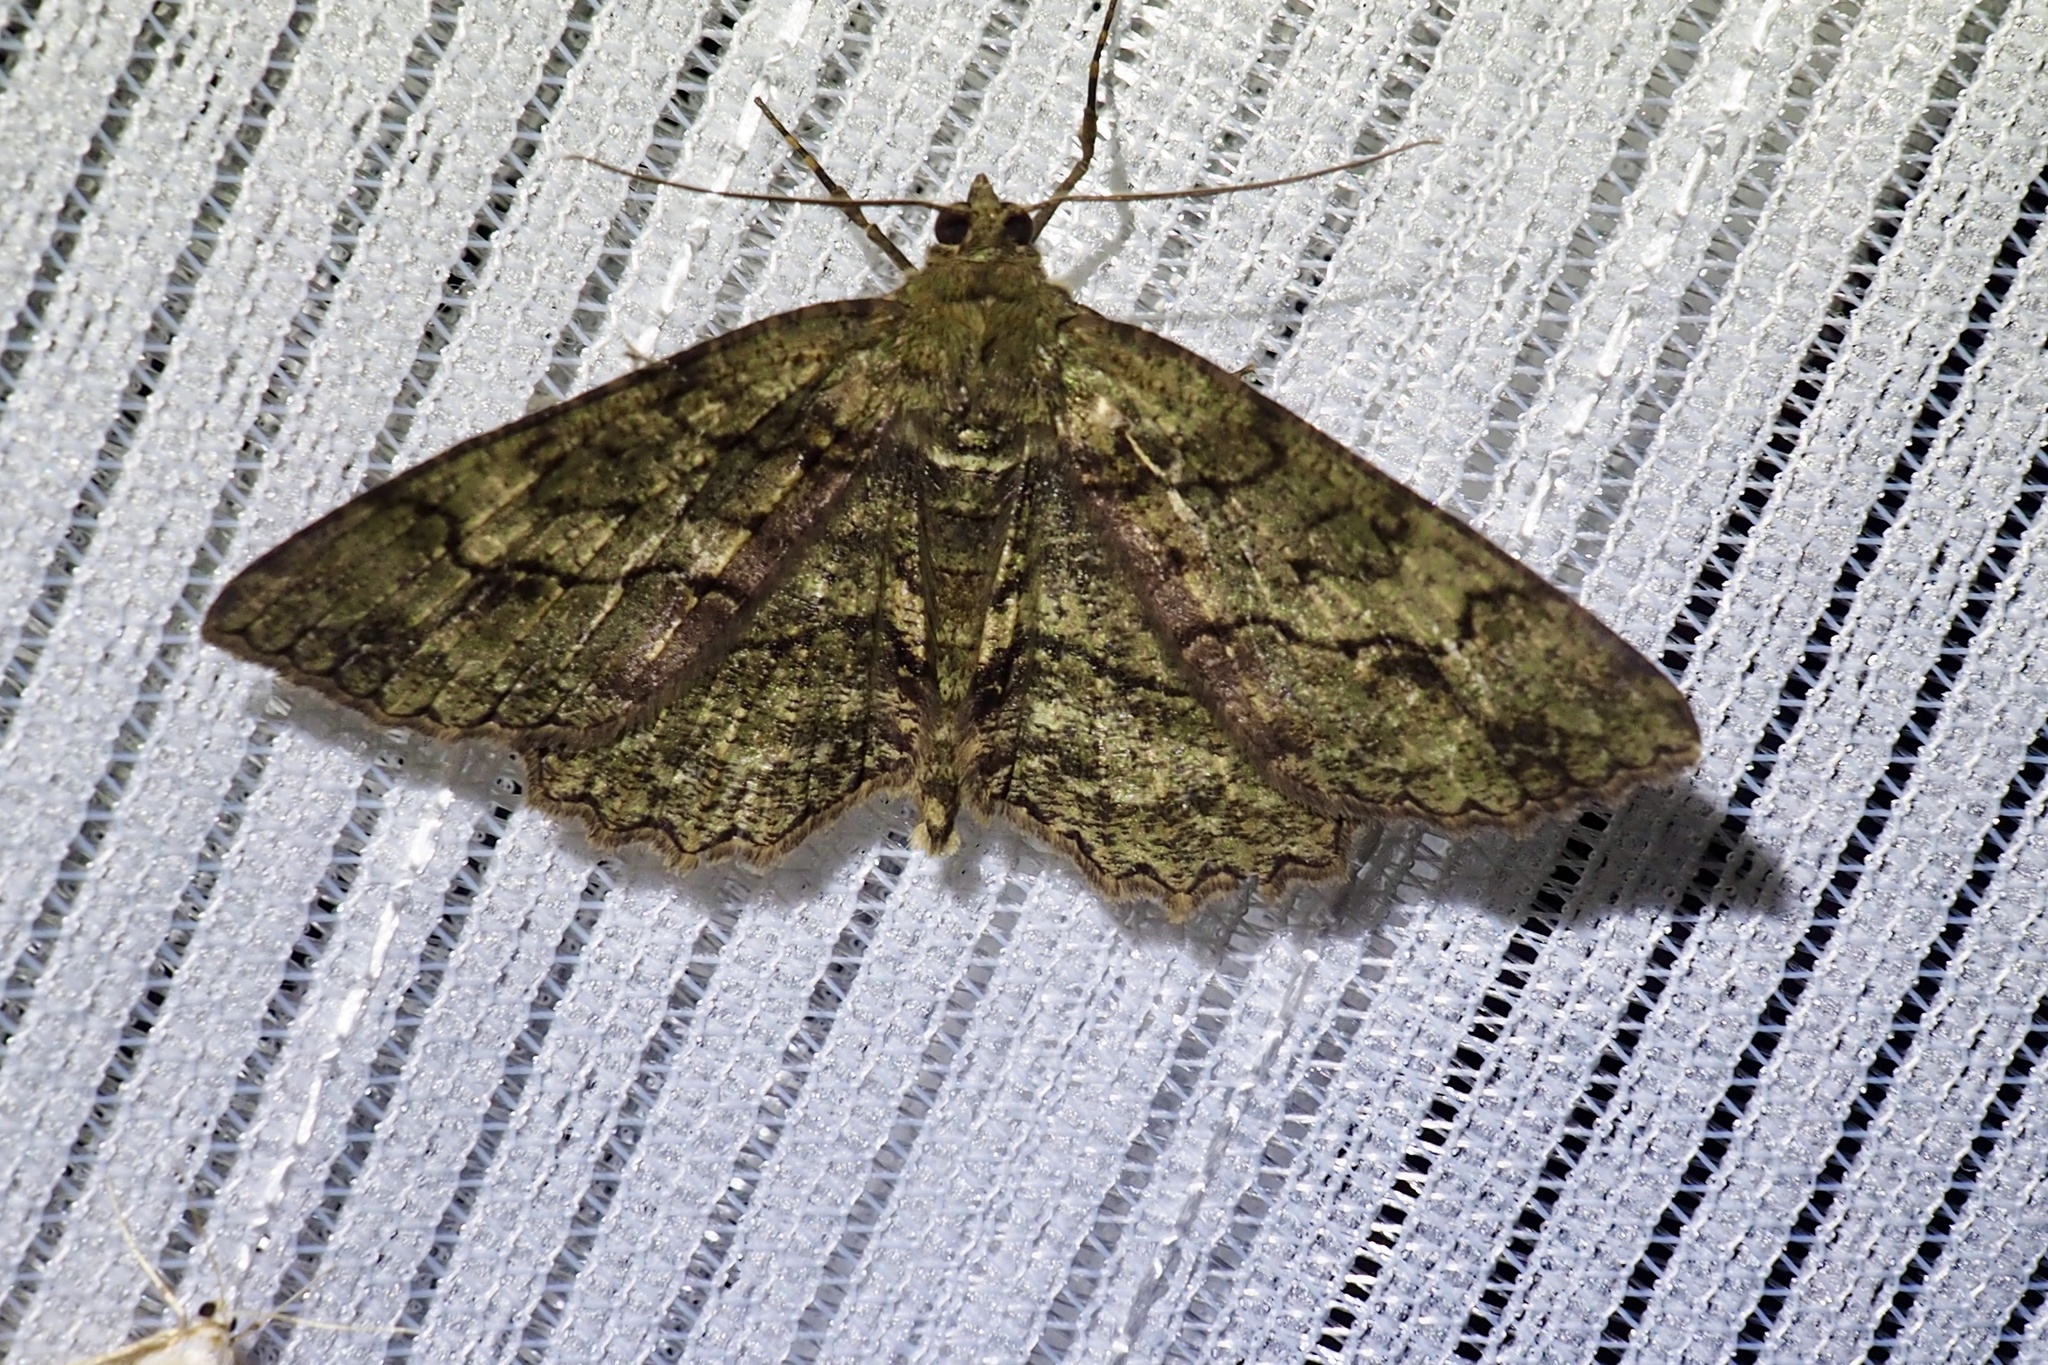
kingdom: Animalia
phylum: Arthropoda
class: Insecta
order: Lepidoptera
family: Geometridae
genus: Paradarisa
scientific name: Paradarisa chloauges
